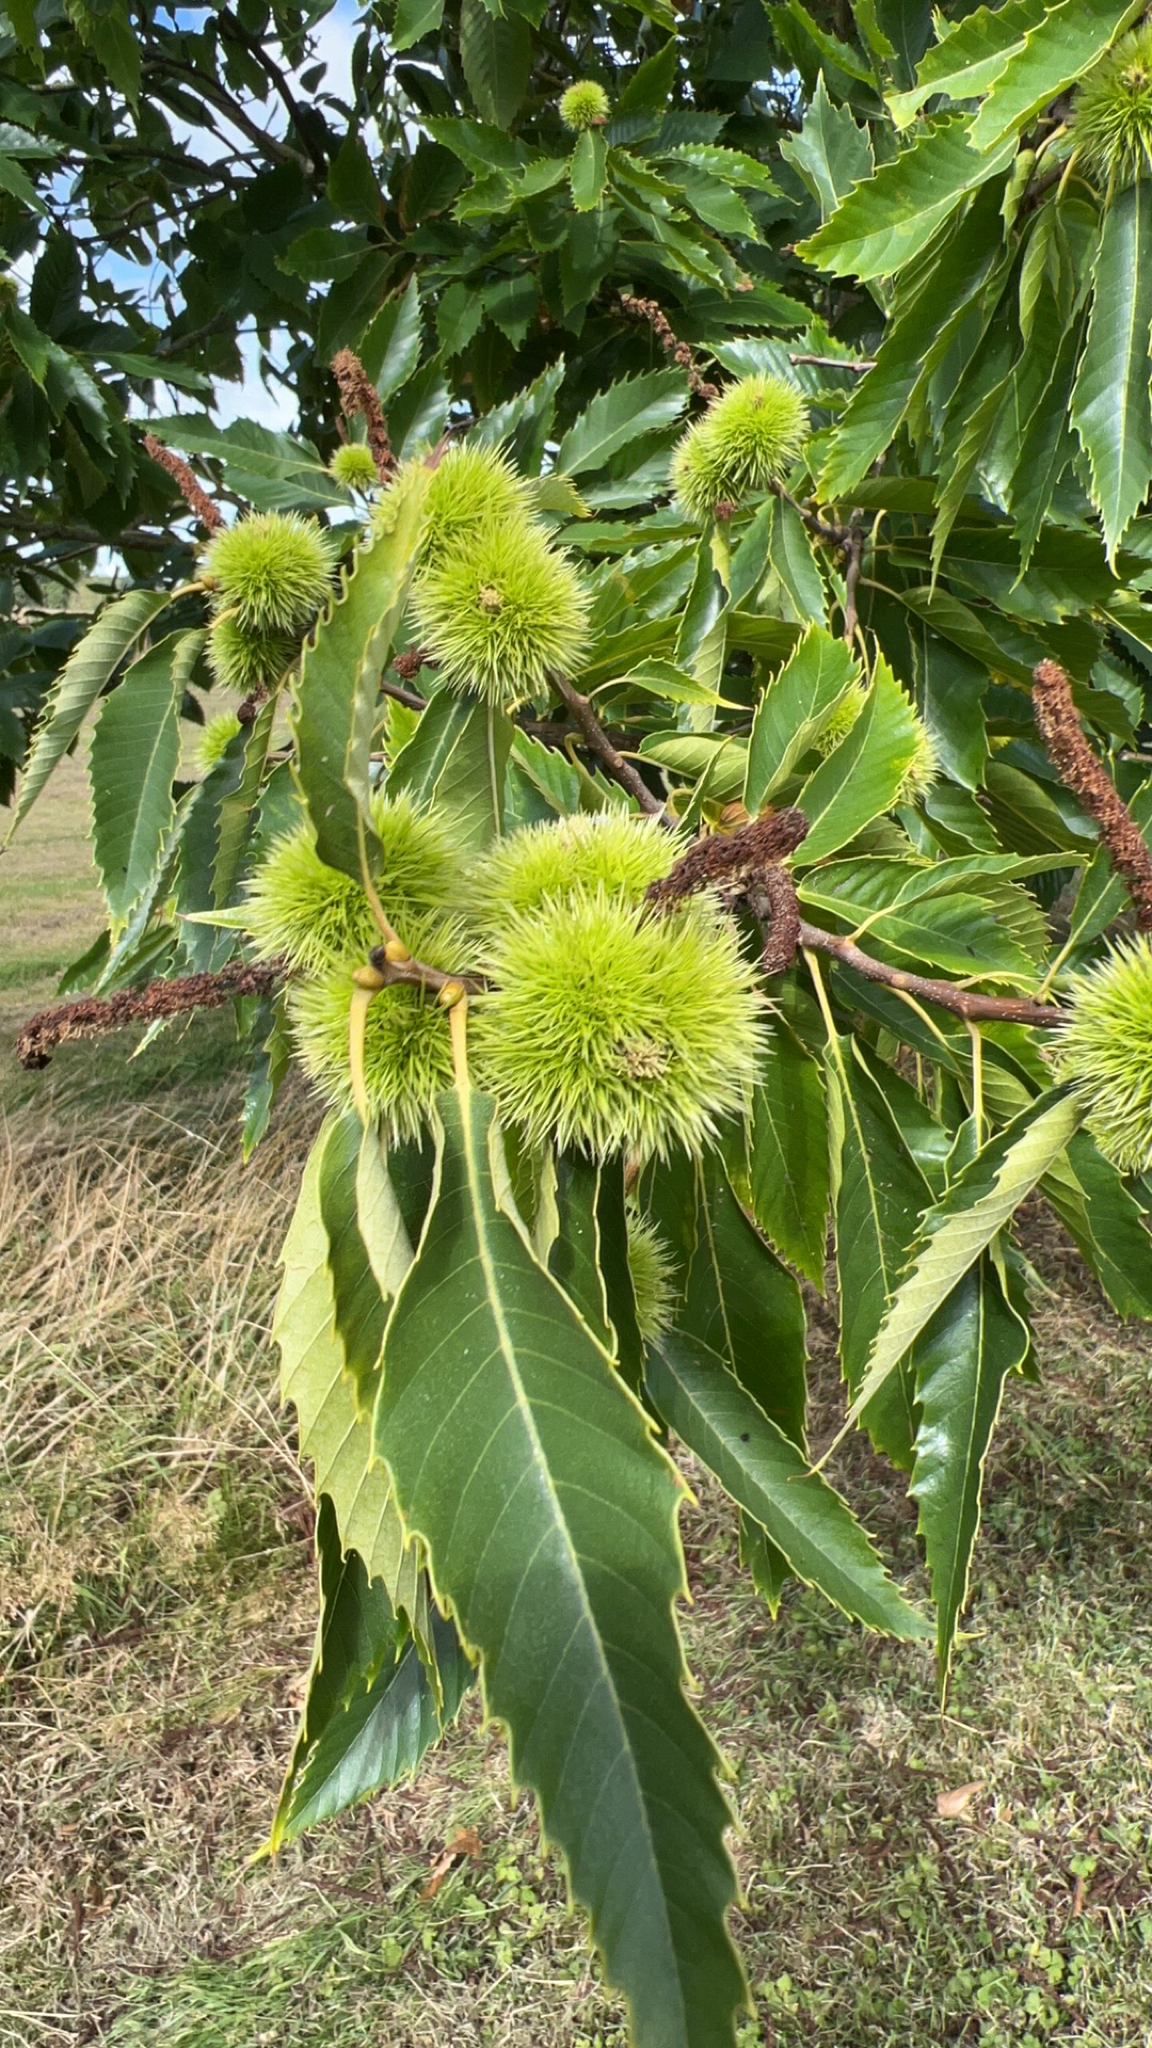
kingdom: Plantae
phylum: Tracheophyta
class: Magnoliopsida
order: Fagales
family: Fagaceae
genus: Castanea
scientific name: Castanea sativa
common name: Sweet chestnut
